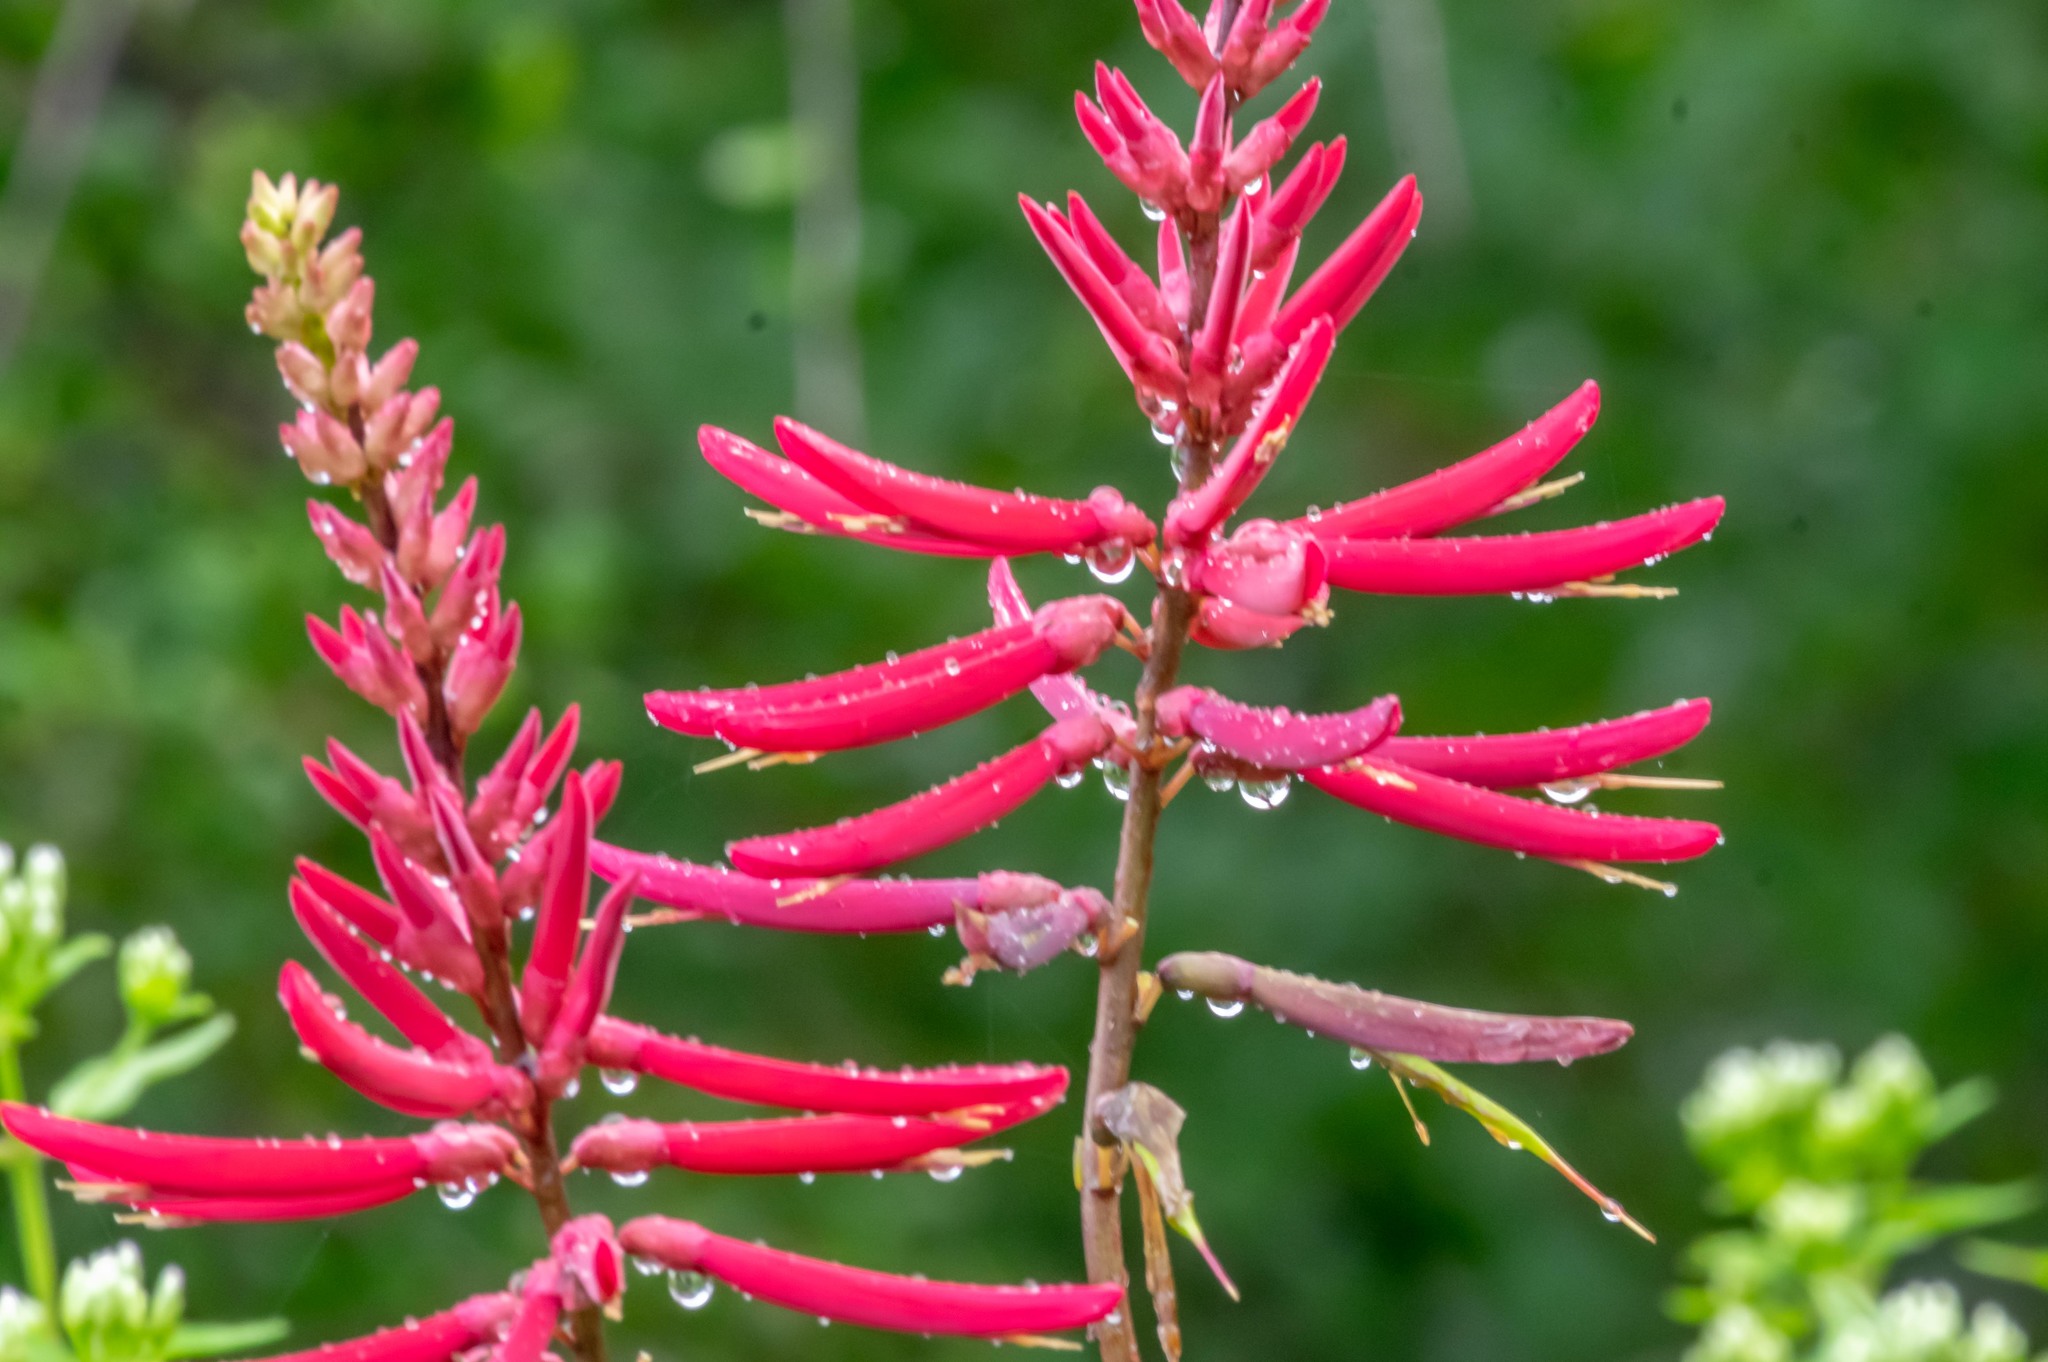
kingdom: Plantae
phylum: Tracheophyta
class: Magnoliopsida
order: Fabales
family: Fabaceae
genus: Erythrina
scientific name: Erythrina herbacea
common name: Coral-bean
